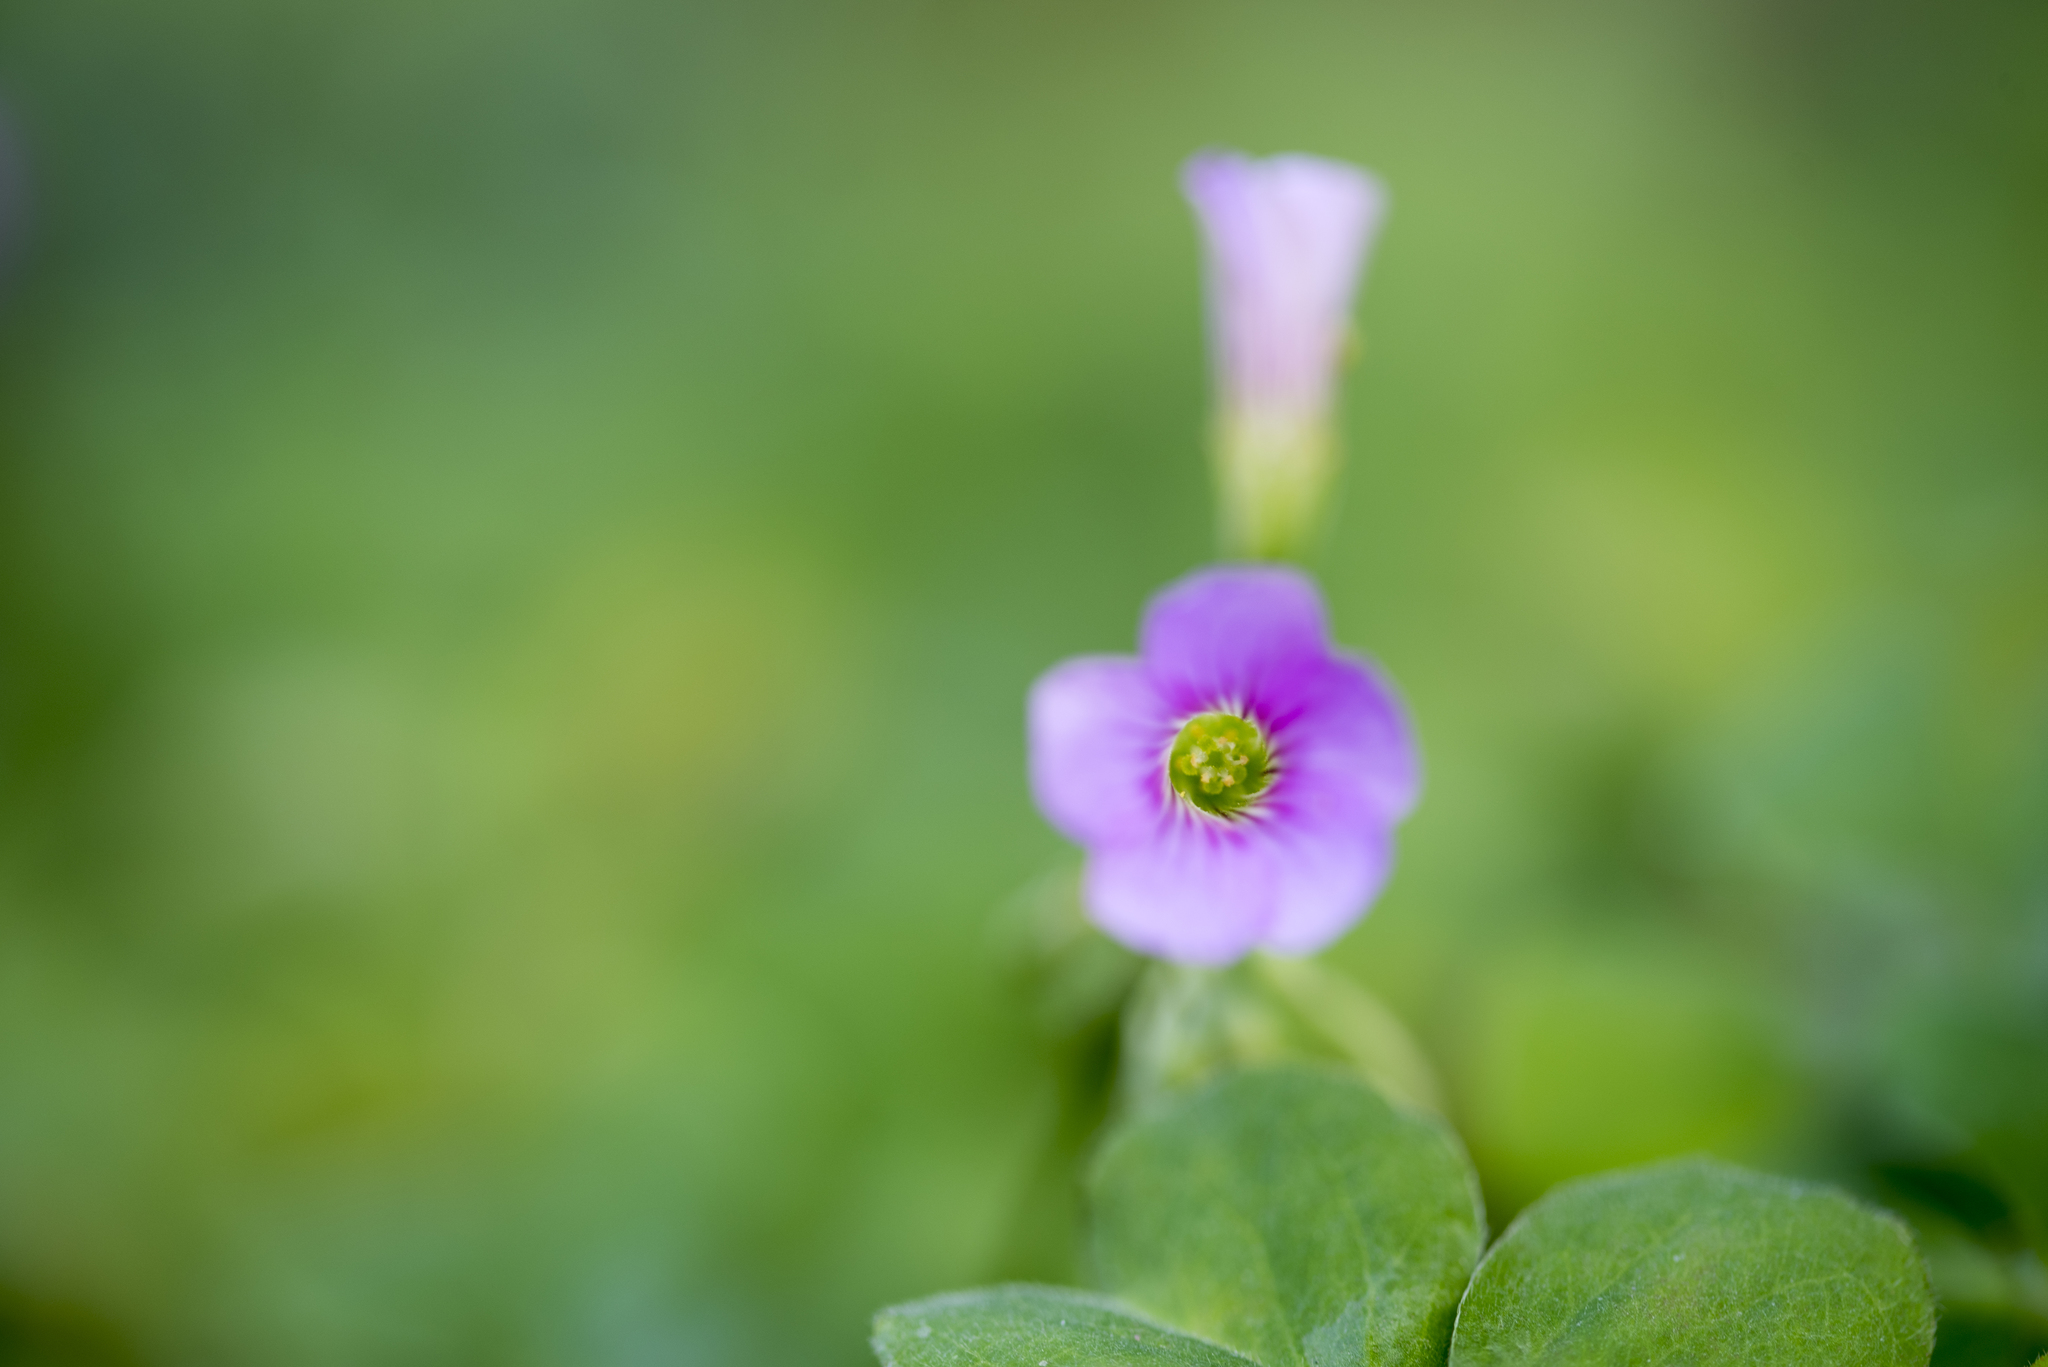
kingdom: Plantae
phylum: Tracheophyta
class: Magnoliopsida
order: Oxalidales
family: Oxalidaceae
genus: Oxalis
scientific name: Oxalis debilis
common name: Large-flowered pink-sorrel
